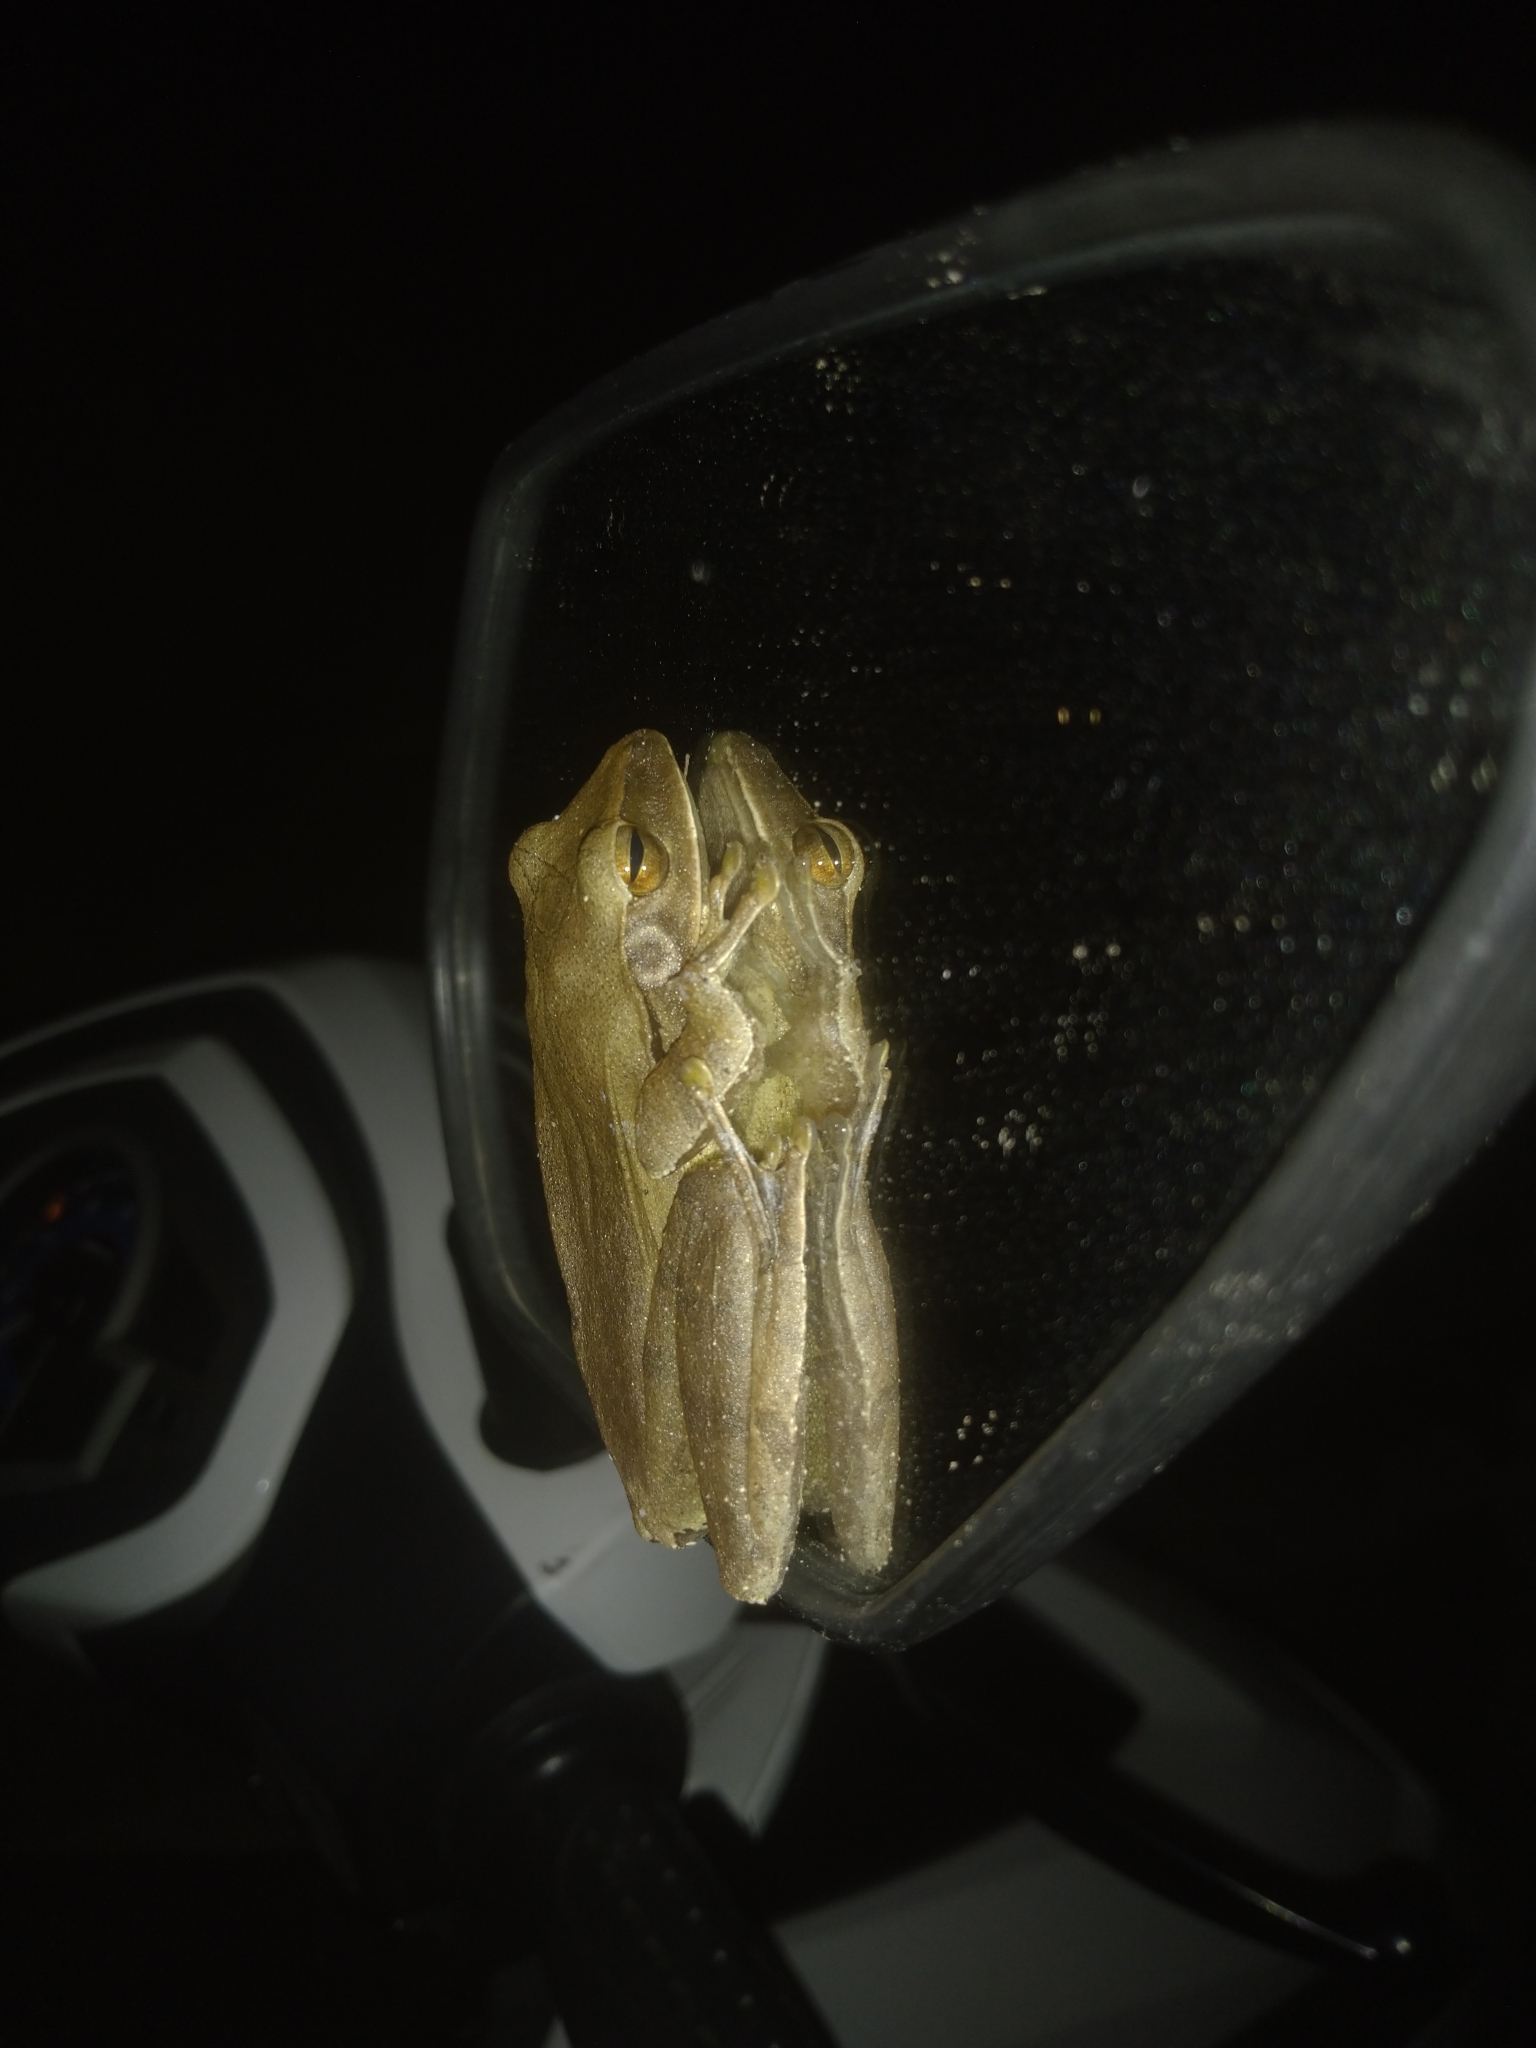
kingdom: Animalia
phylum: Chordata
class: Amphibia
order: Anura
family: Rhacophoridae
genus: Polypedates
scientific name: Polypedates megacephalus
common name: Hong kong whipping frog
